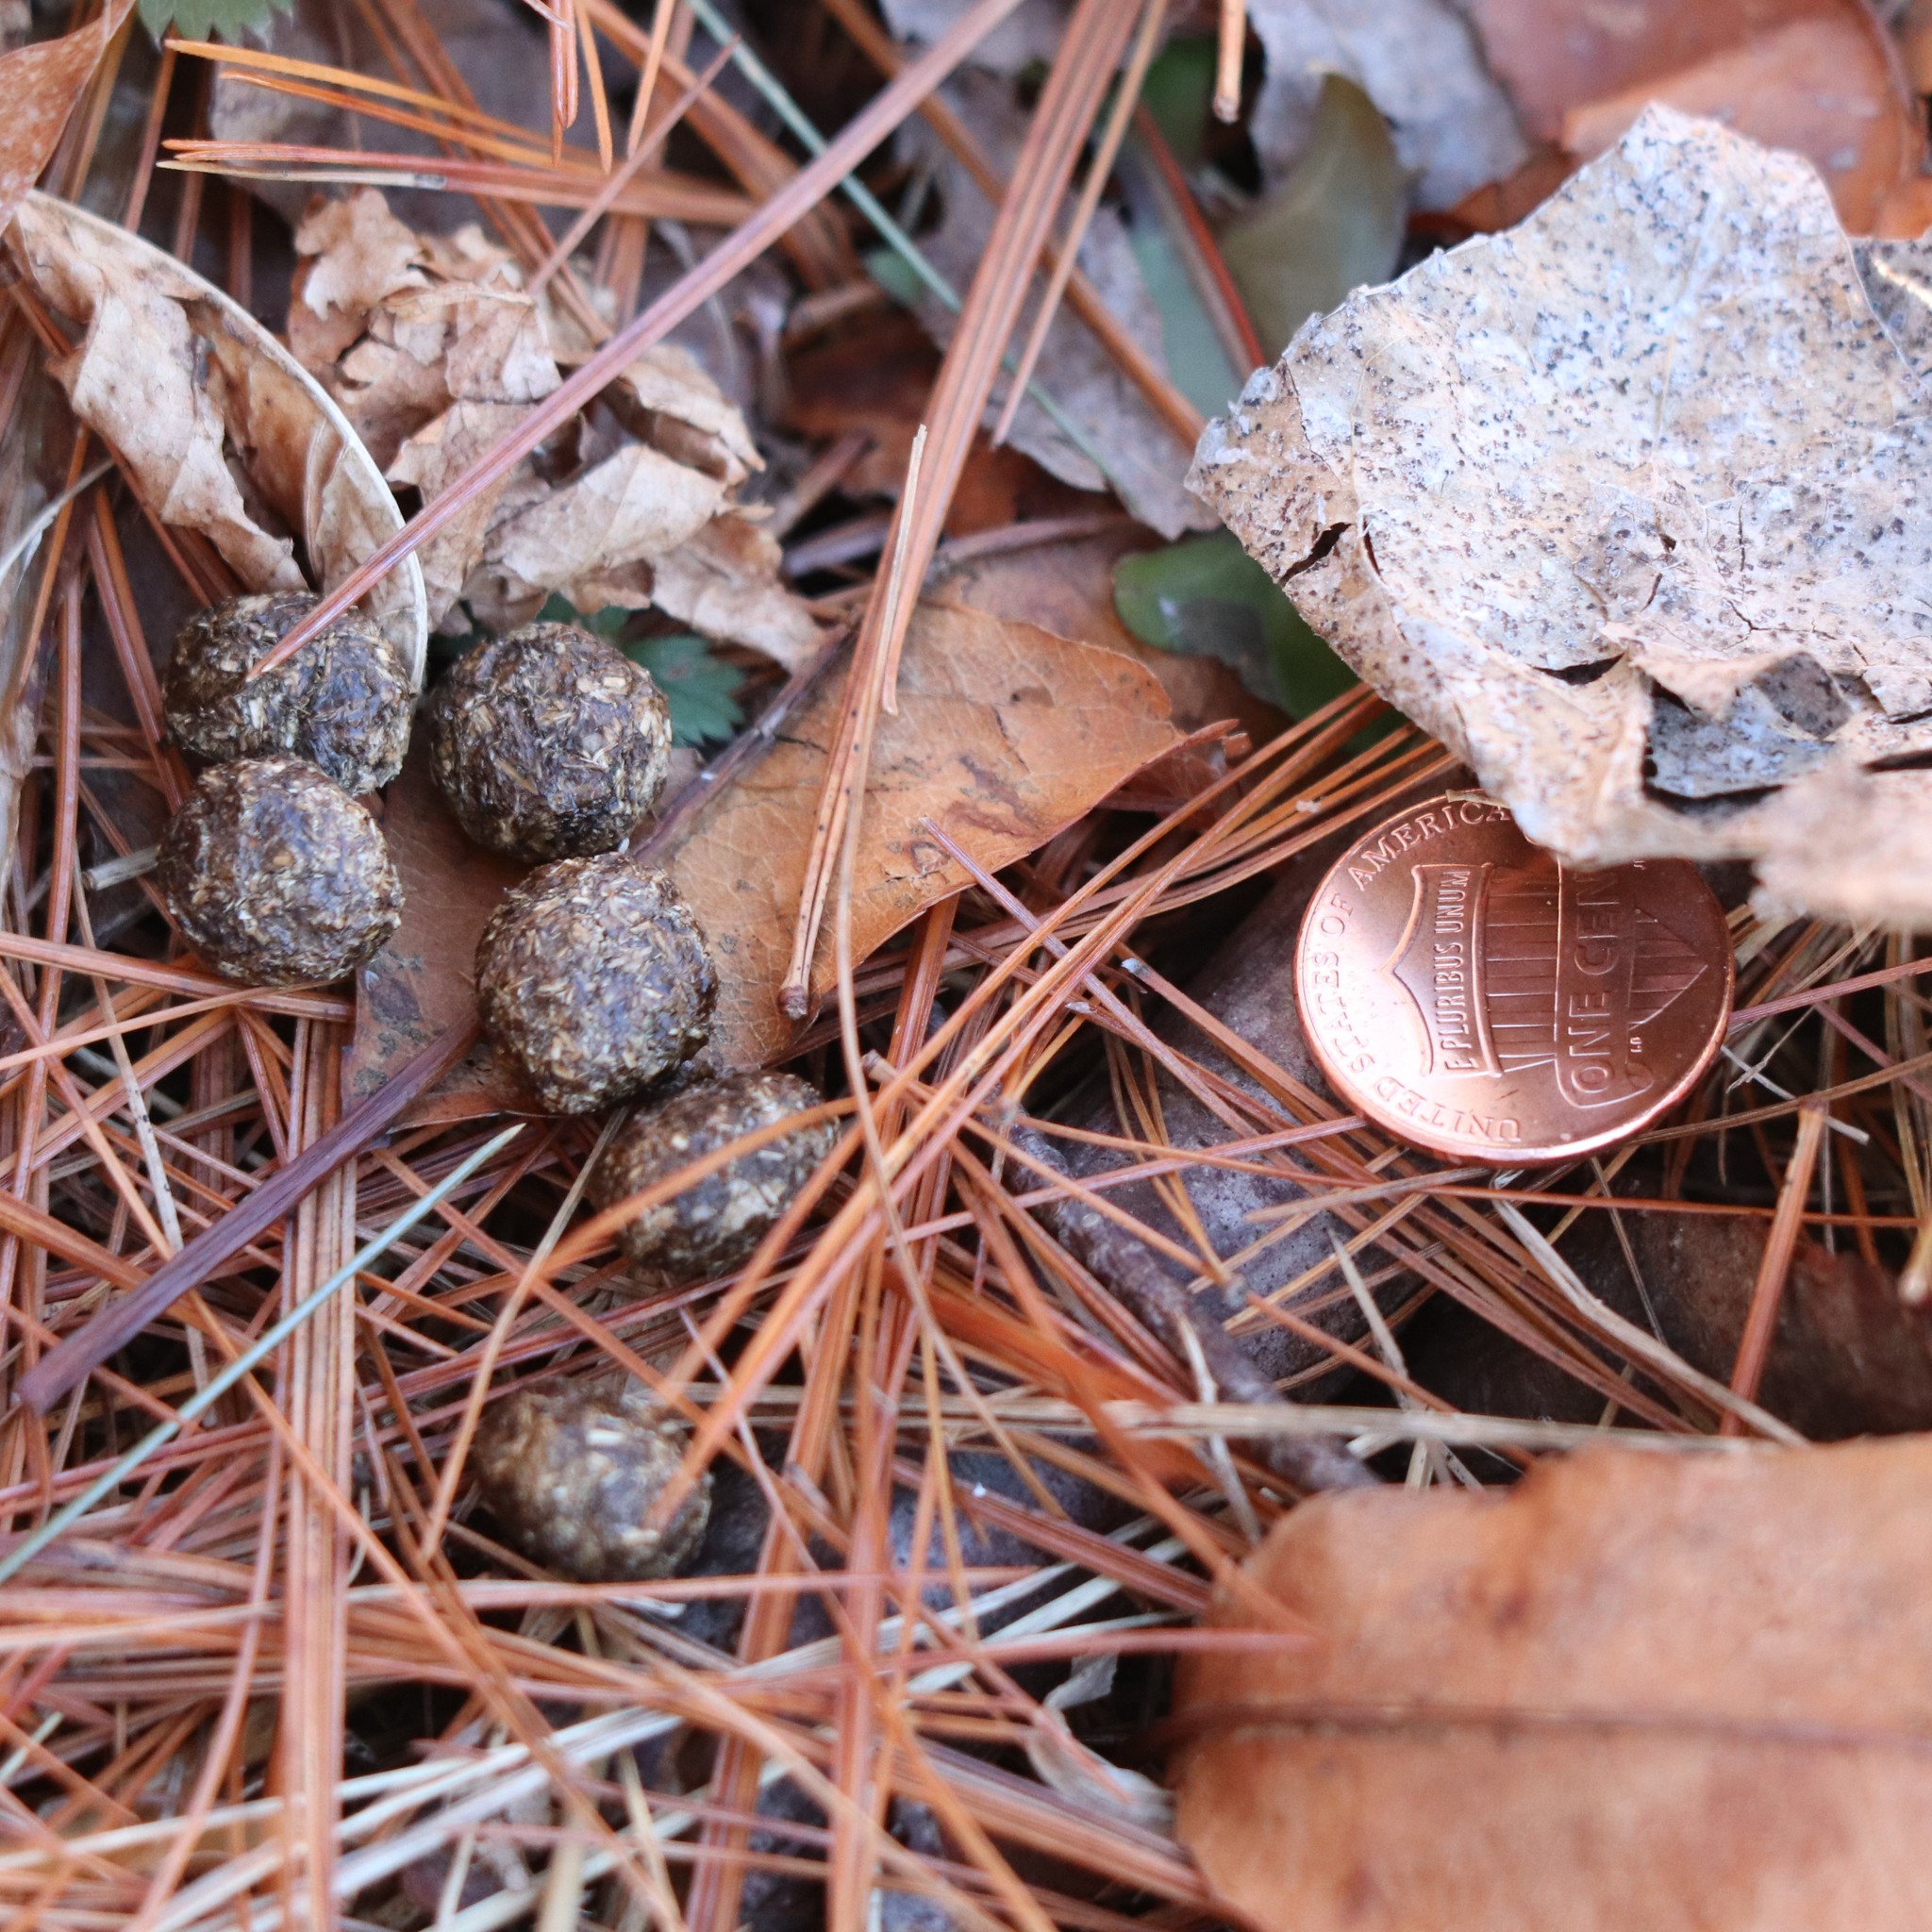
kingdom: Animalia
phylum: Chordata
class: Mammalia
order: Lagomorpha
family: Leporidae
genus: Sylvilagus
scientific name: Sylvilagus floridanus
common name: Eastern cottontail
